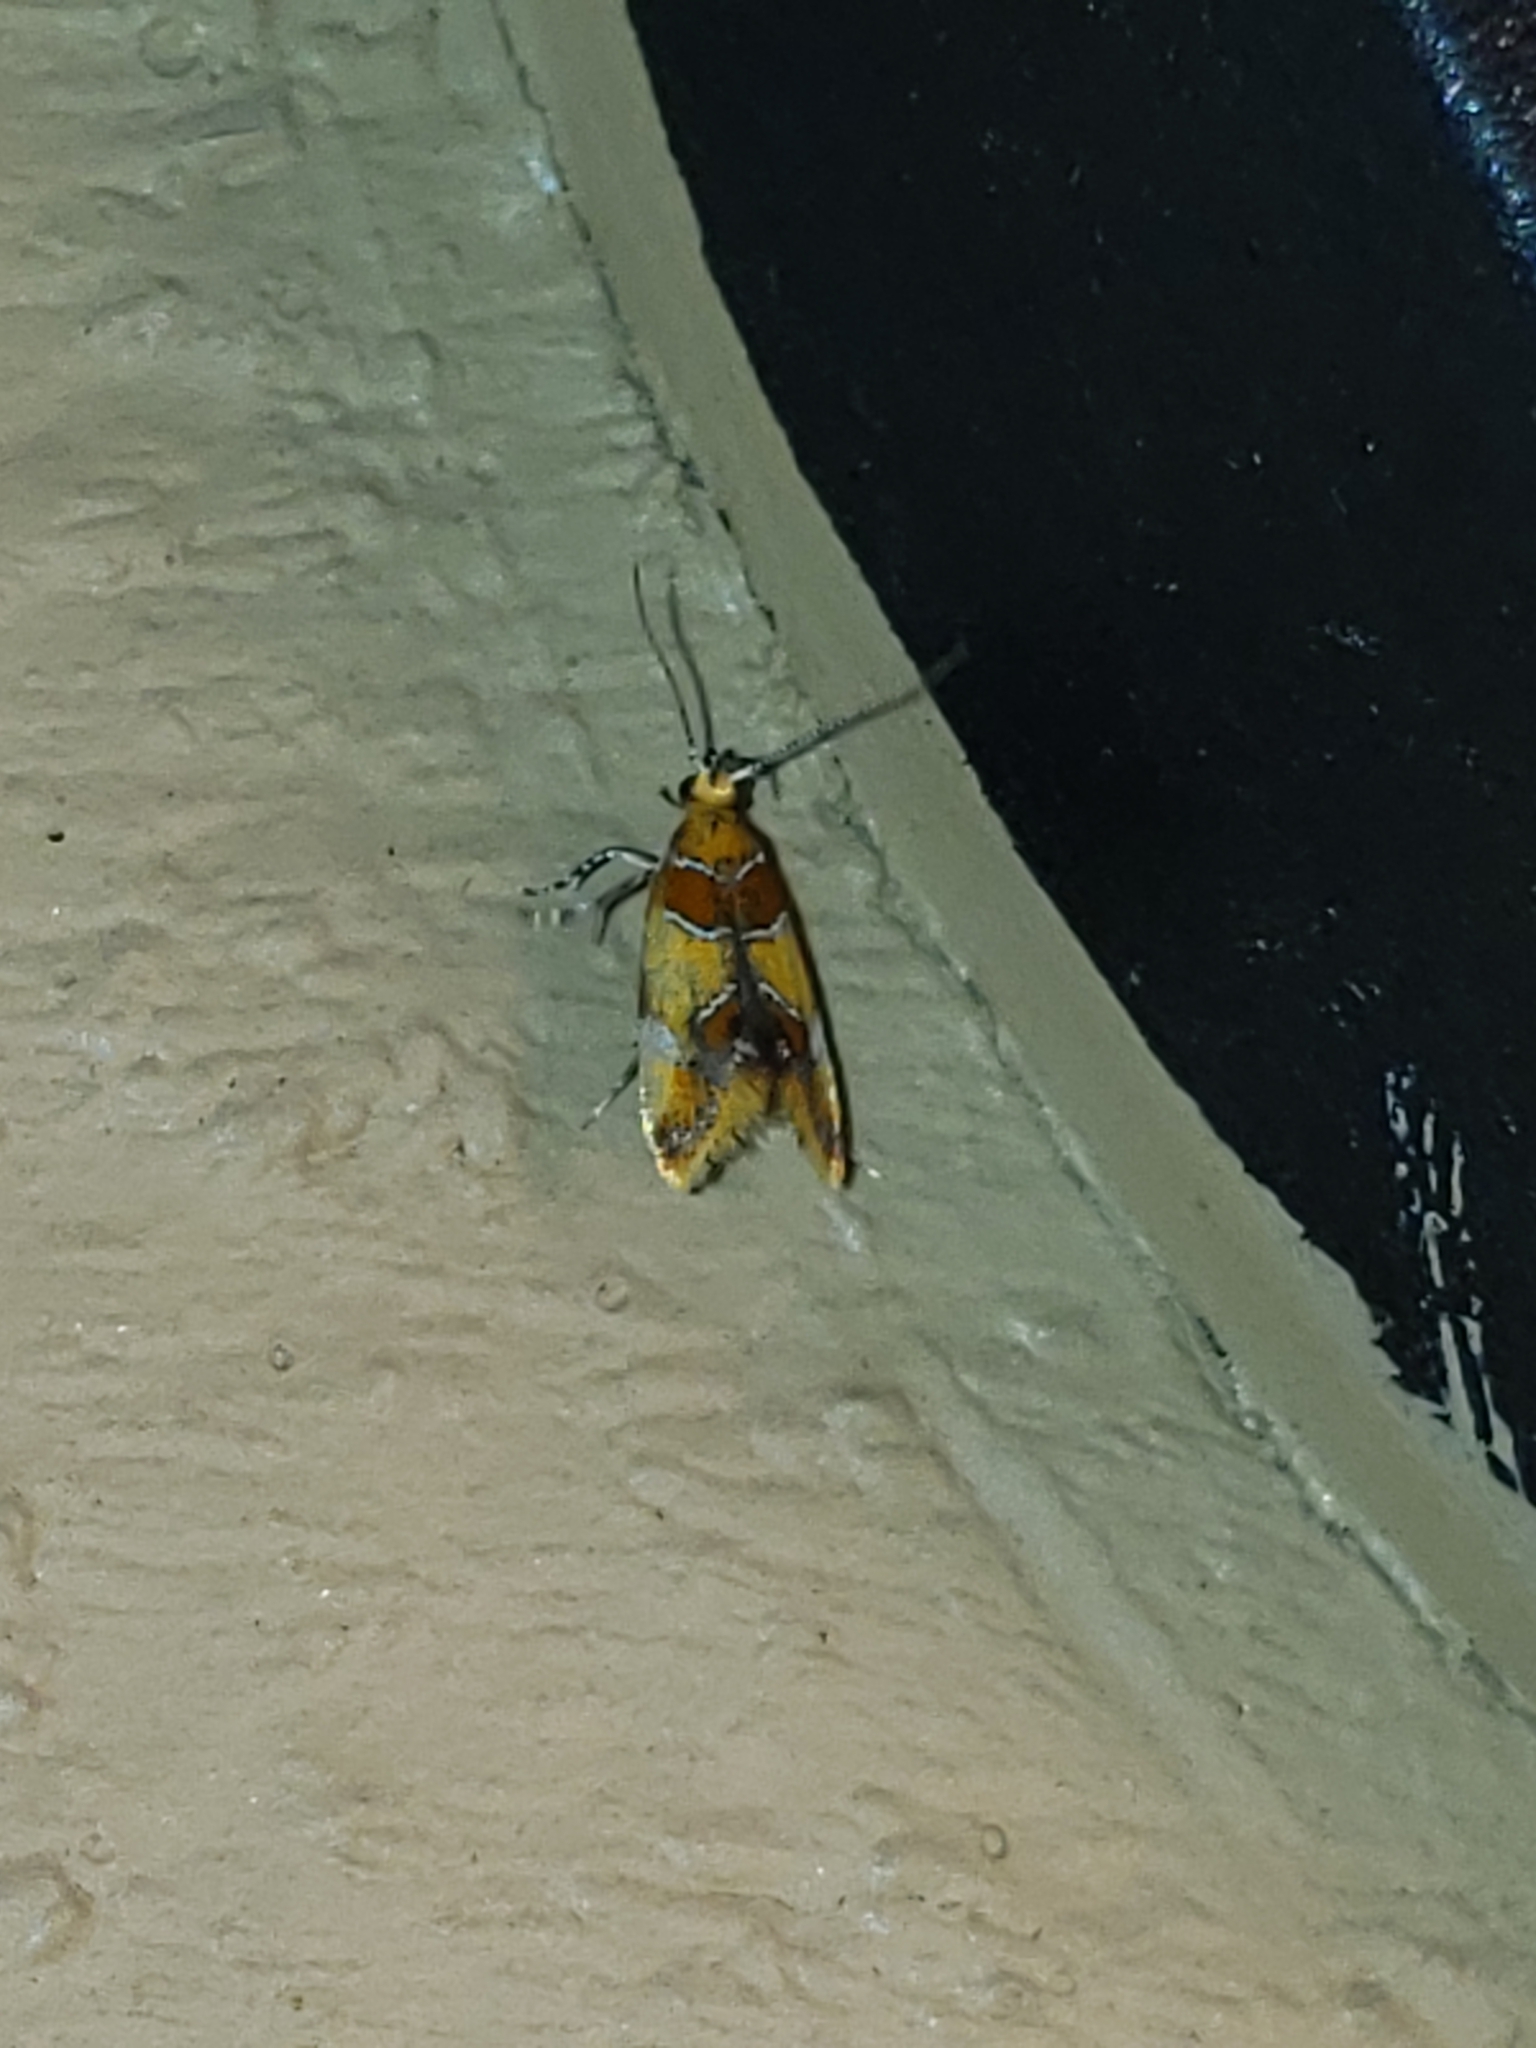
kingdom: Animalia
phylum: Arthropoda
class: Insecta
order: Lepidoptera
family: Oecophoridae
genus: Callima
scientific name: Callima argenticinctella
